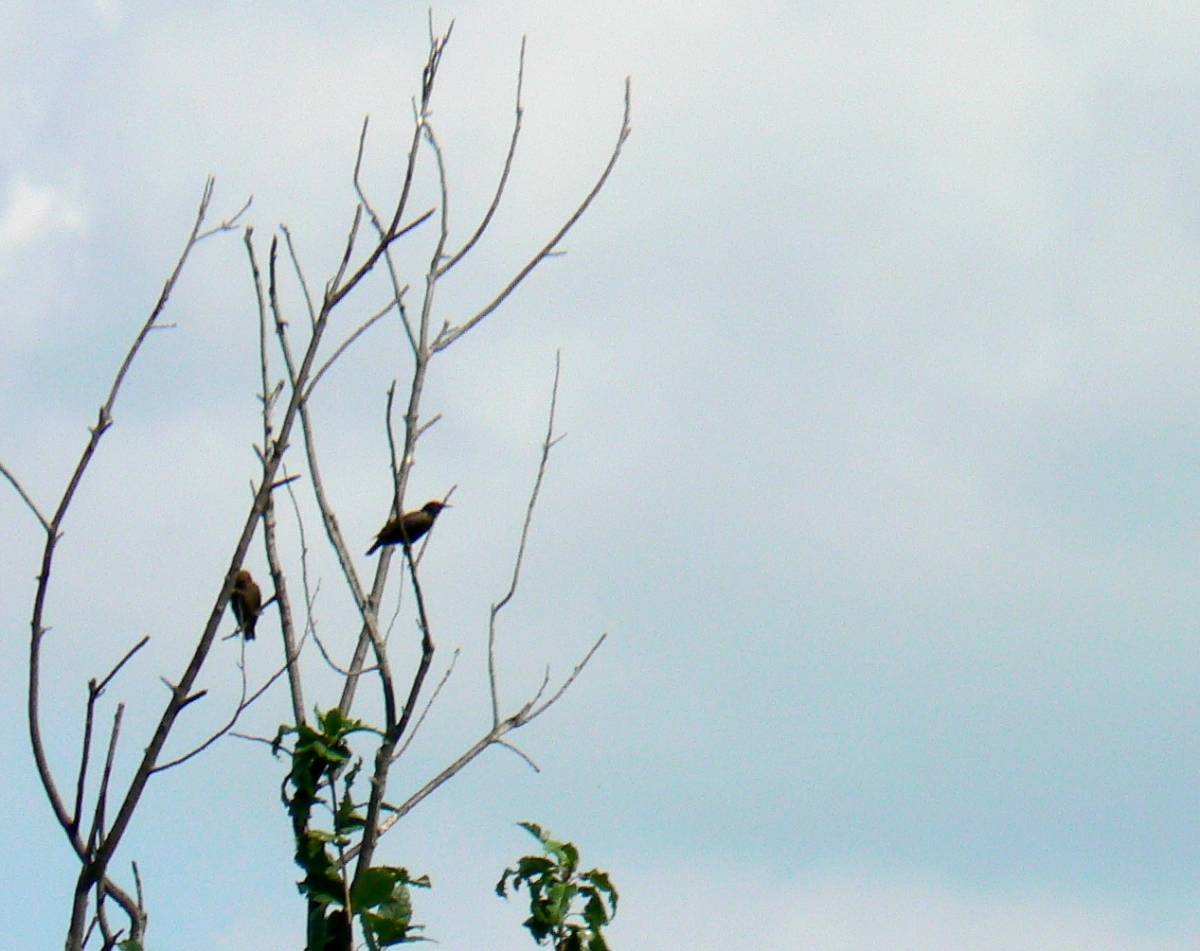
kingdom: Animalia
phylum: Chordata
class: Aves
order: Passeriformes
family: Sturnidae
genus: Sturnus
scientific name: Sturnus vulgaris
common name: Common starling
